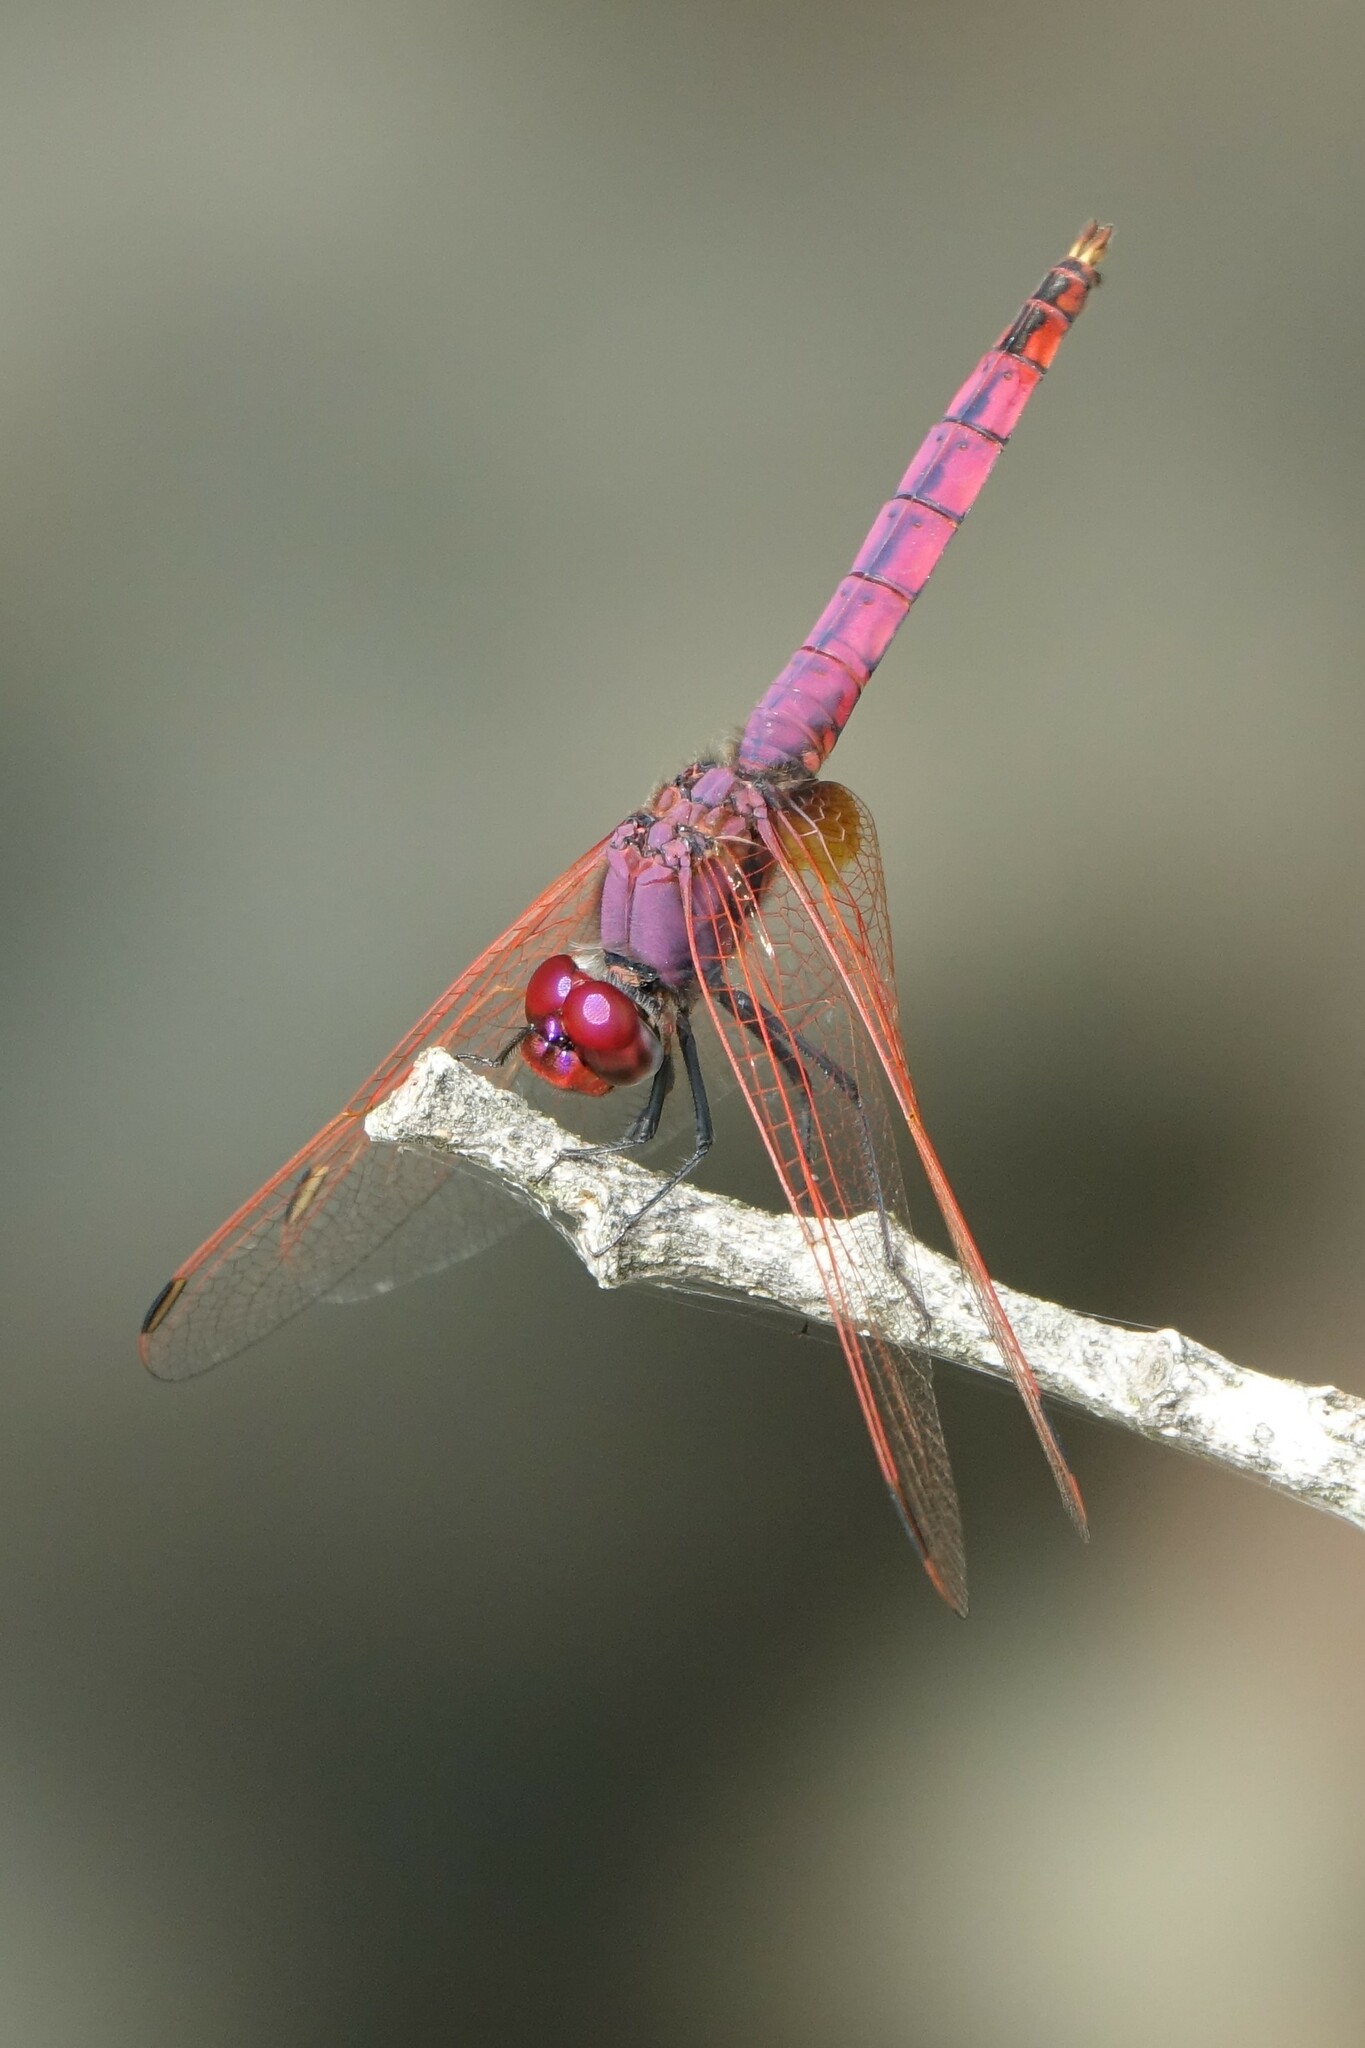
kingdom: Animalia
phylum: Arthropoda
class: Insecta
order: Odonata
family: Libellulidae
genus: Trithemis
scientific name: Trithemis annulata
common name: Violet dropwing
